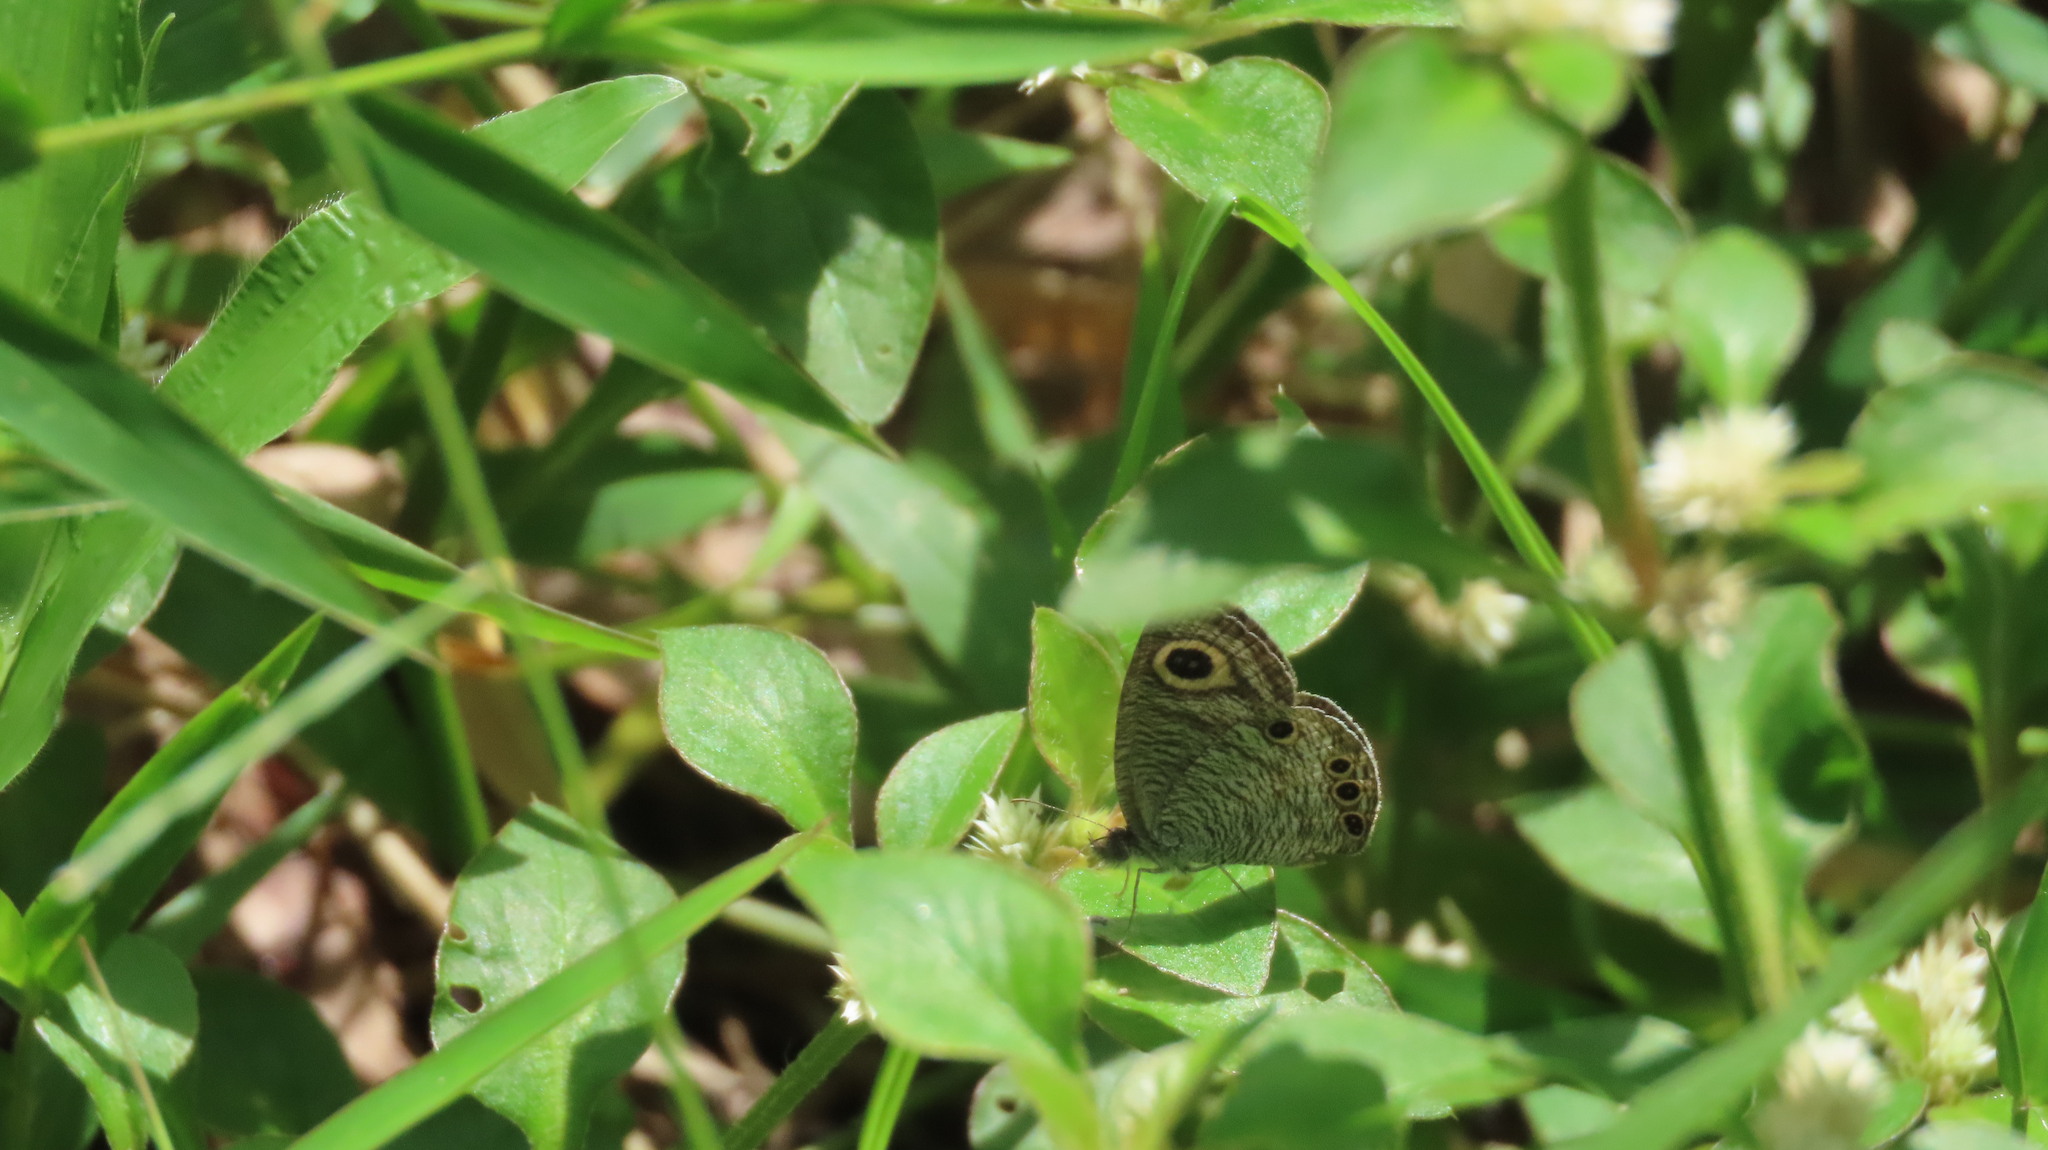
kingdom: Animalia
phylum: Arthropoda
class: Insecta
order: Lepidoptera
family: Nymphalidae
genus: Ypthima
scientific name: Ypthima huebneri
